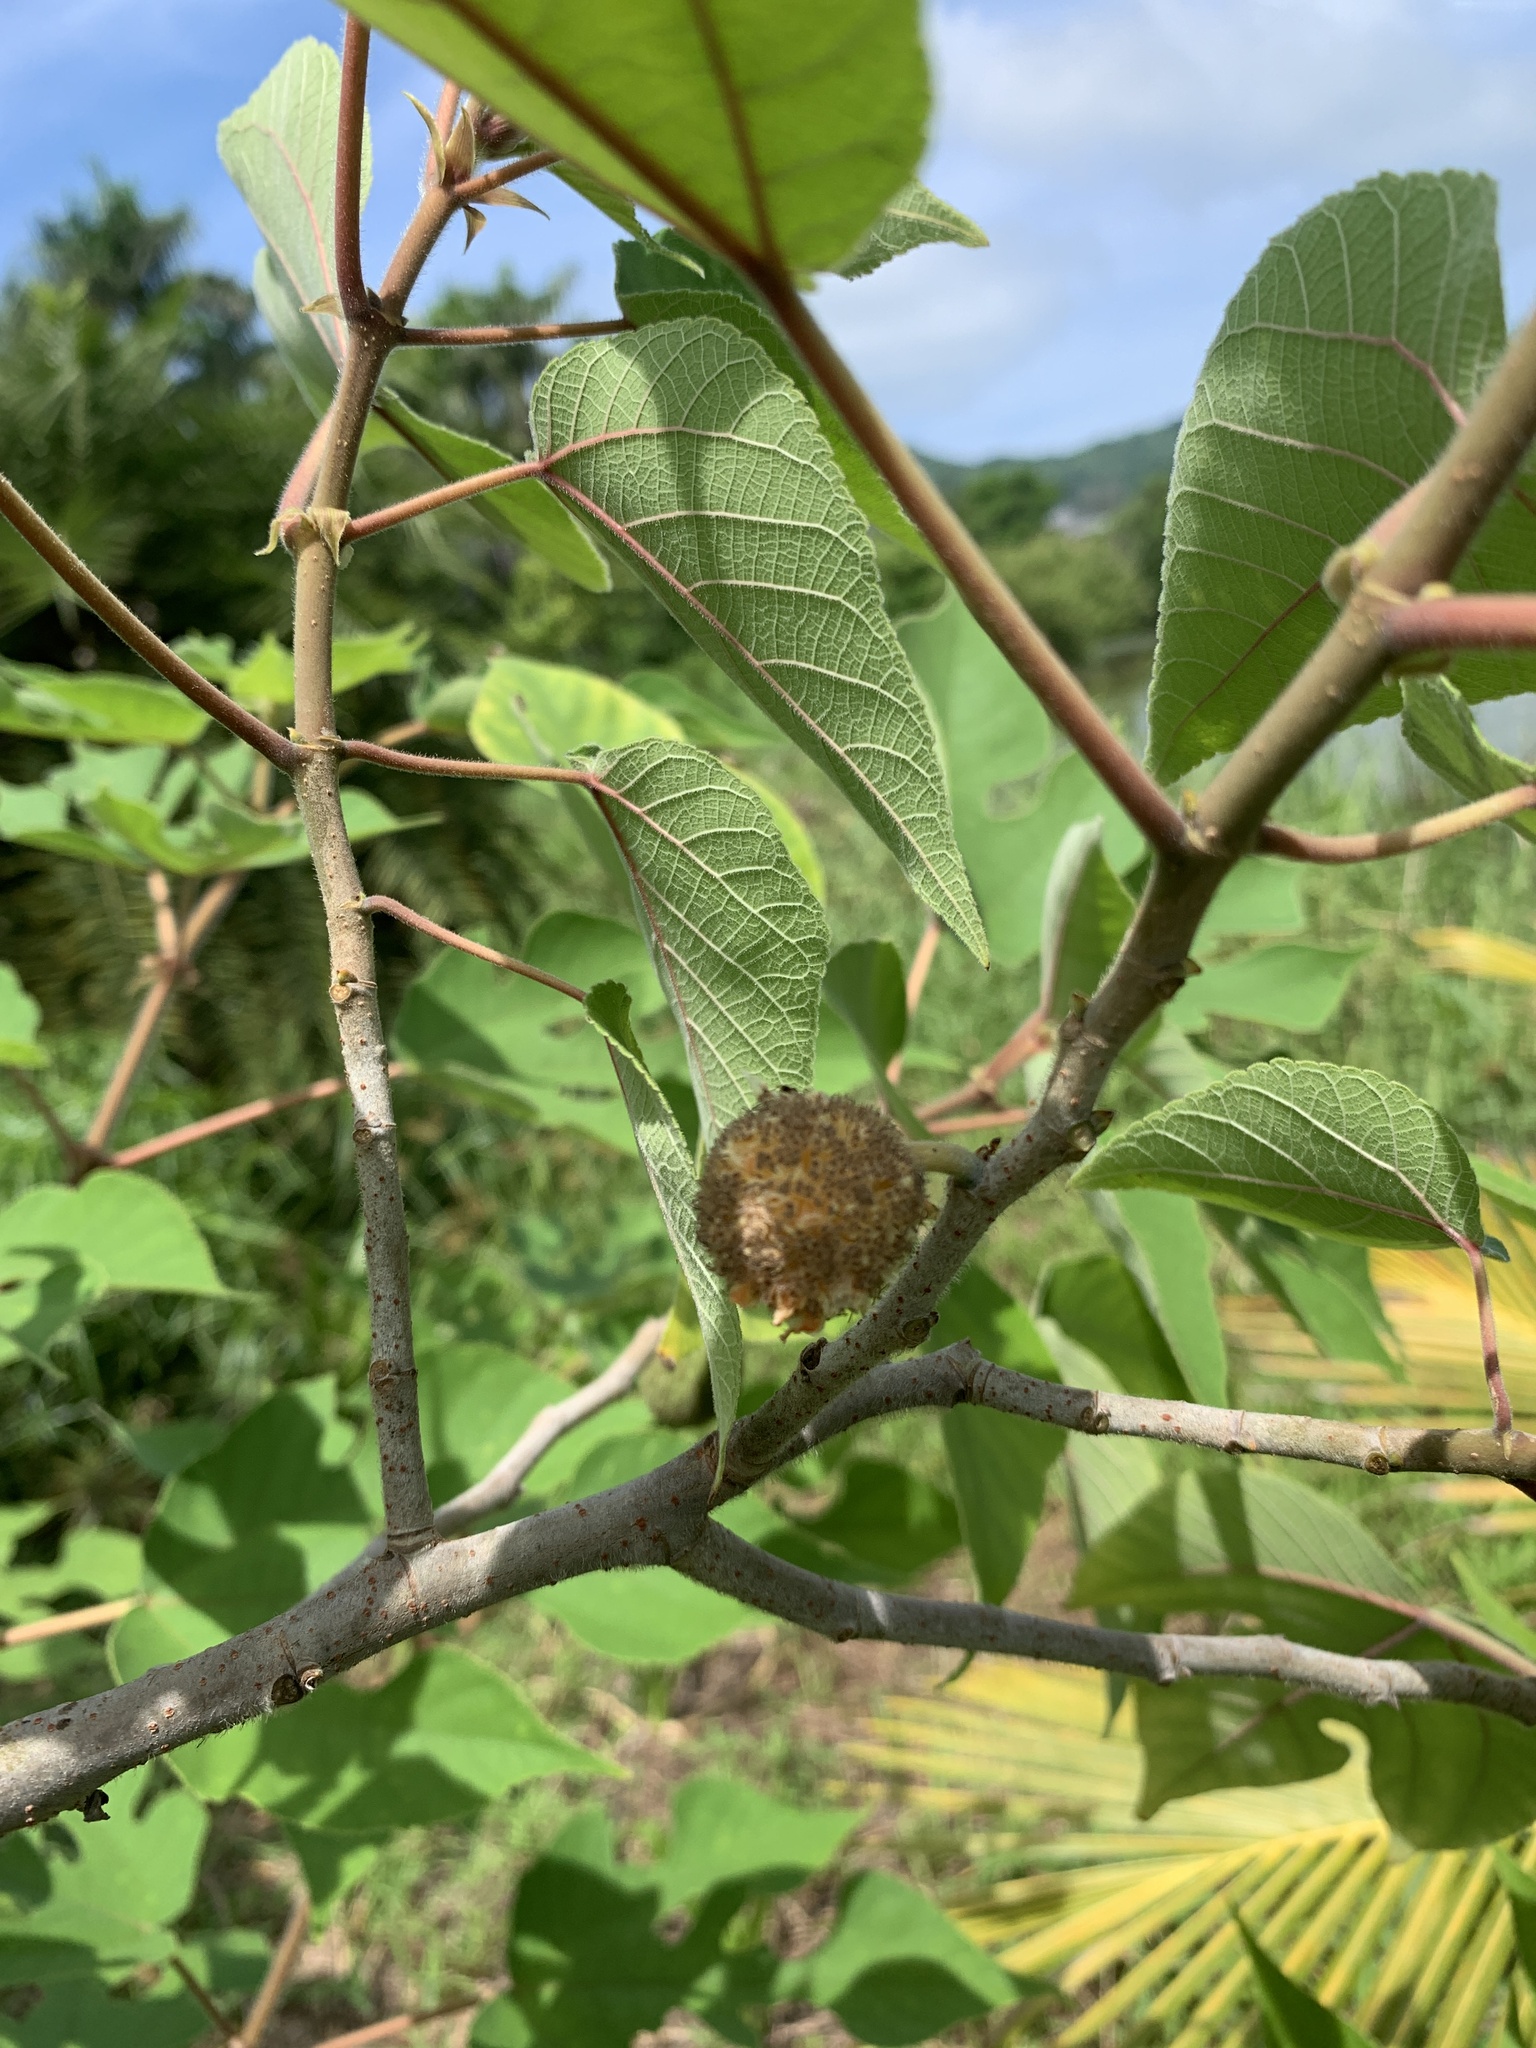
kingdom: Plantae
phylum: Tracheophyta
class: Magnoliopsida
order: Rosales
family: Moraceae
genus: Broussonetia
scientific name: Broussonetia papyrifera
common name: Paper mulberry
